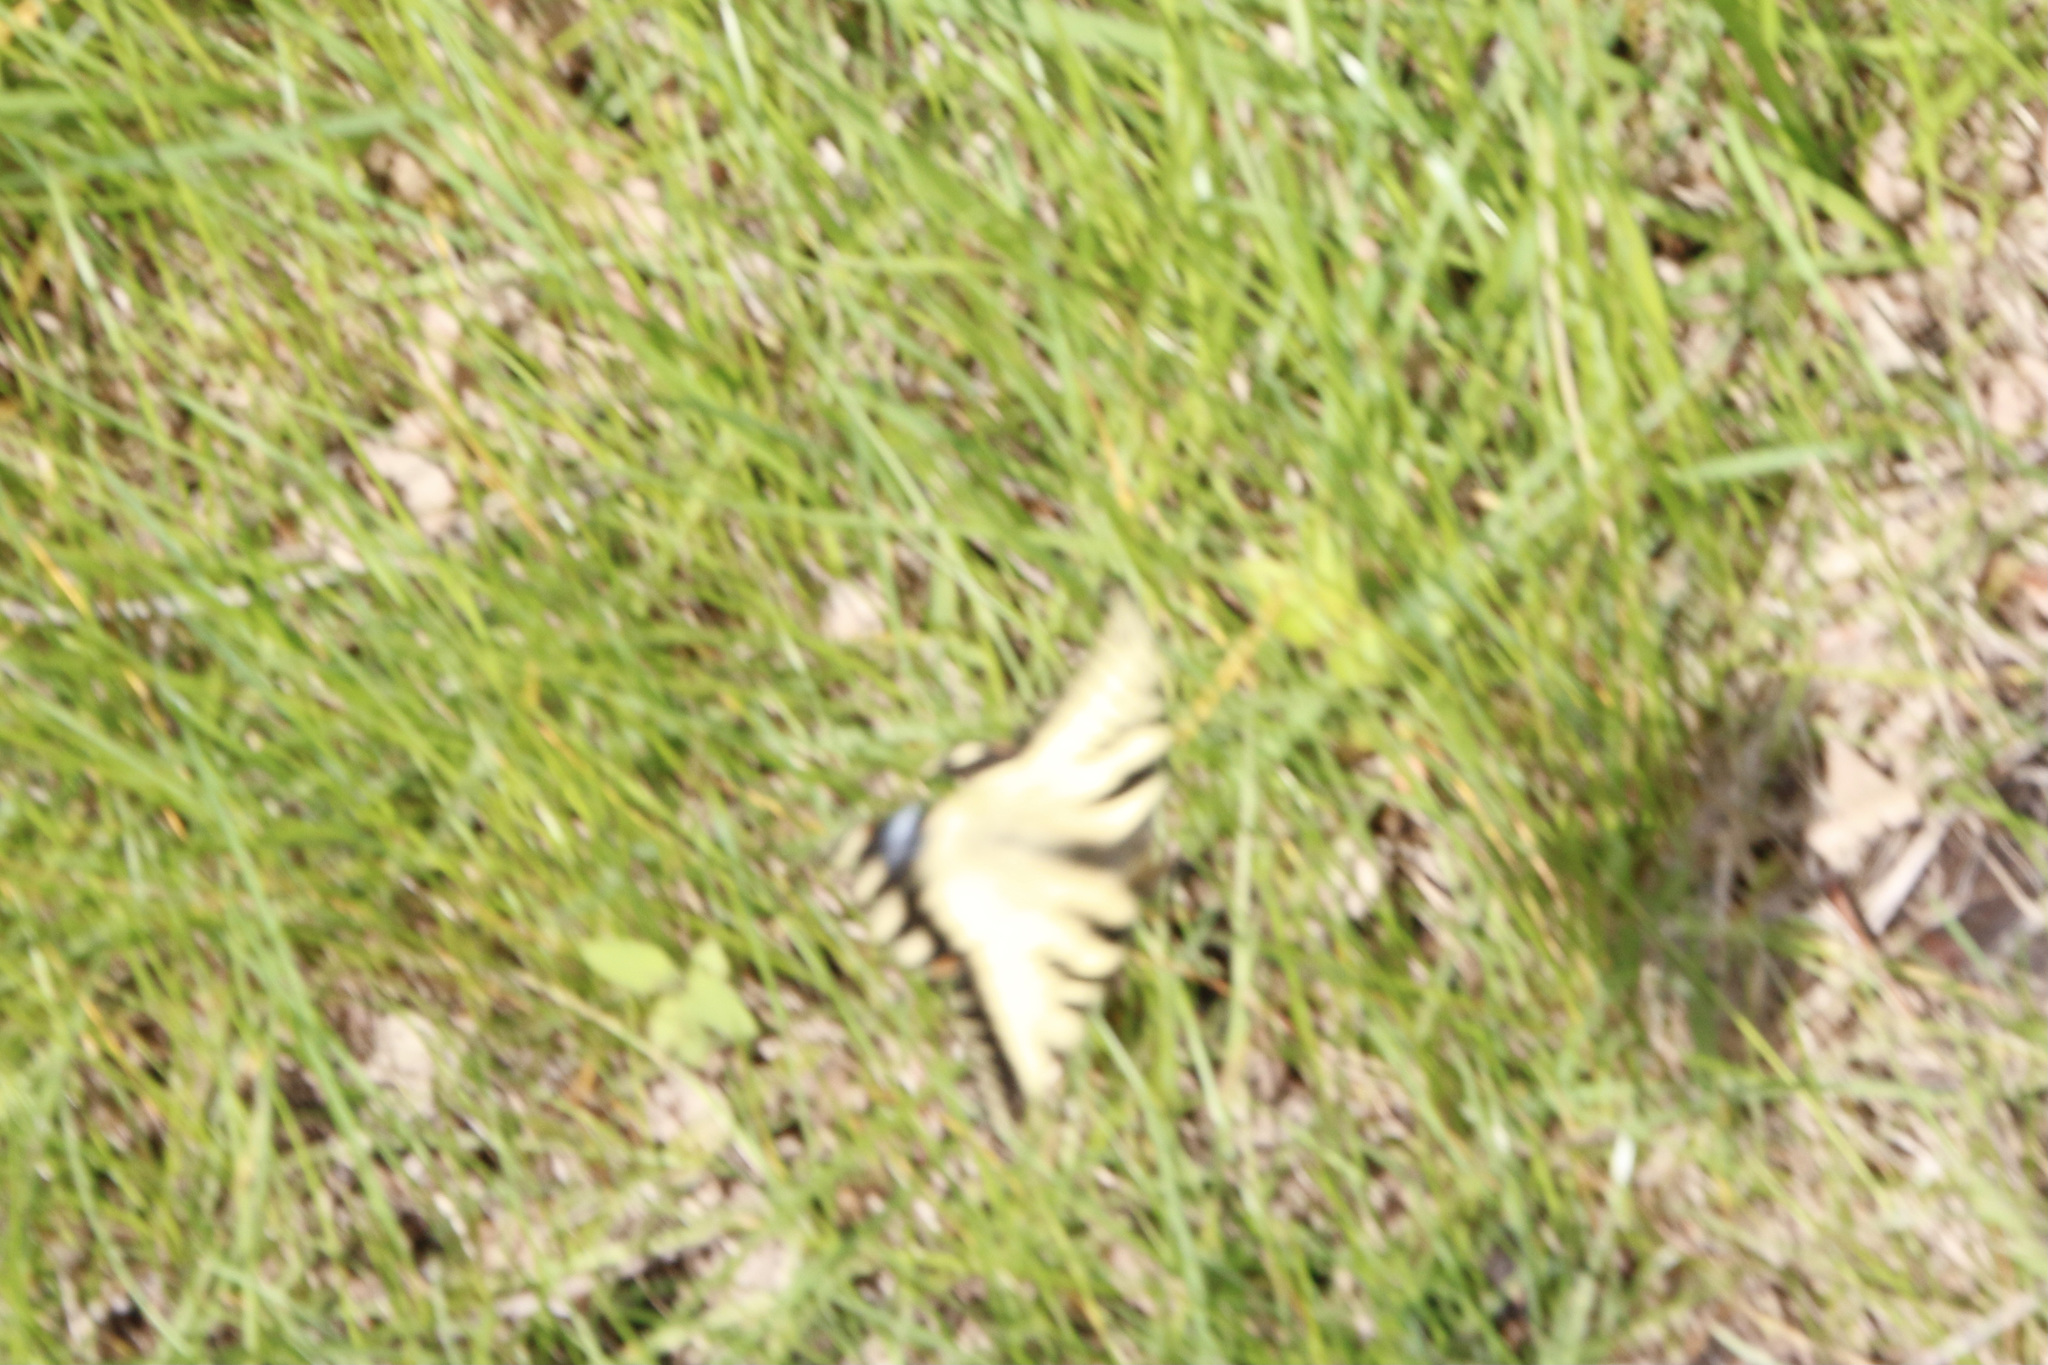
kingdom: Animalia
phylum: Arthropoda
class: Insecta
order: Lepidoptera
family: Papilionidae
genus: Papilio
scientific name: Papilio glaucus
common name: Tiger swallowtail
